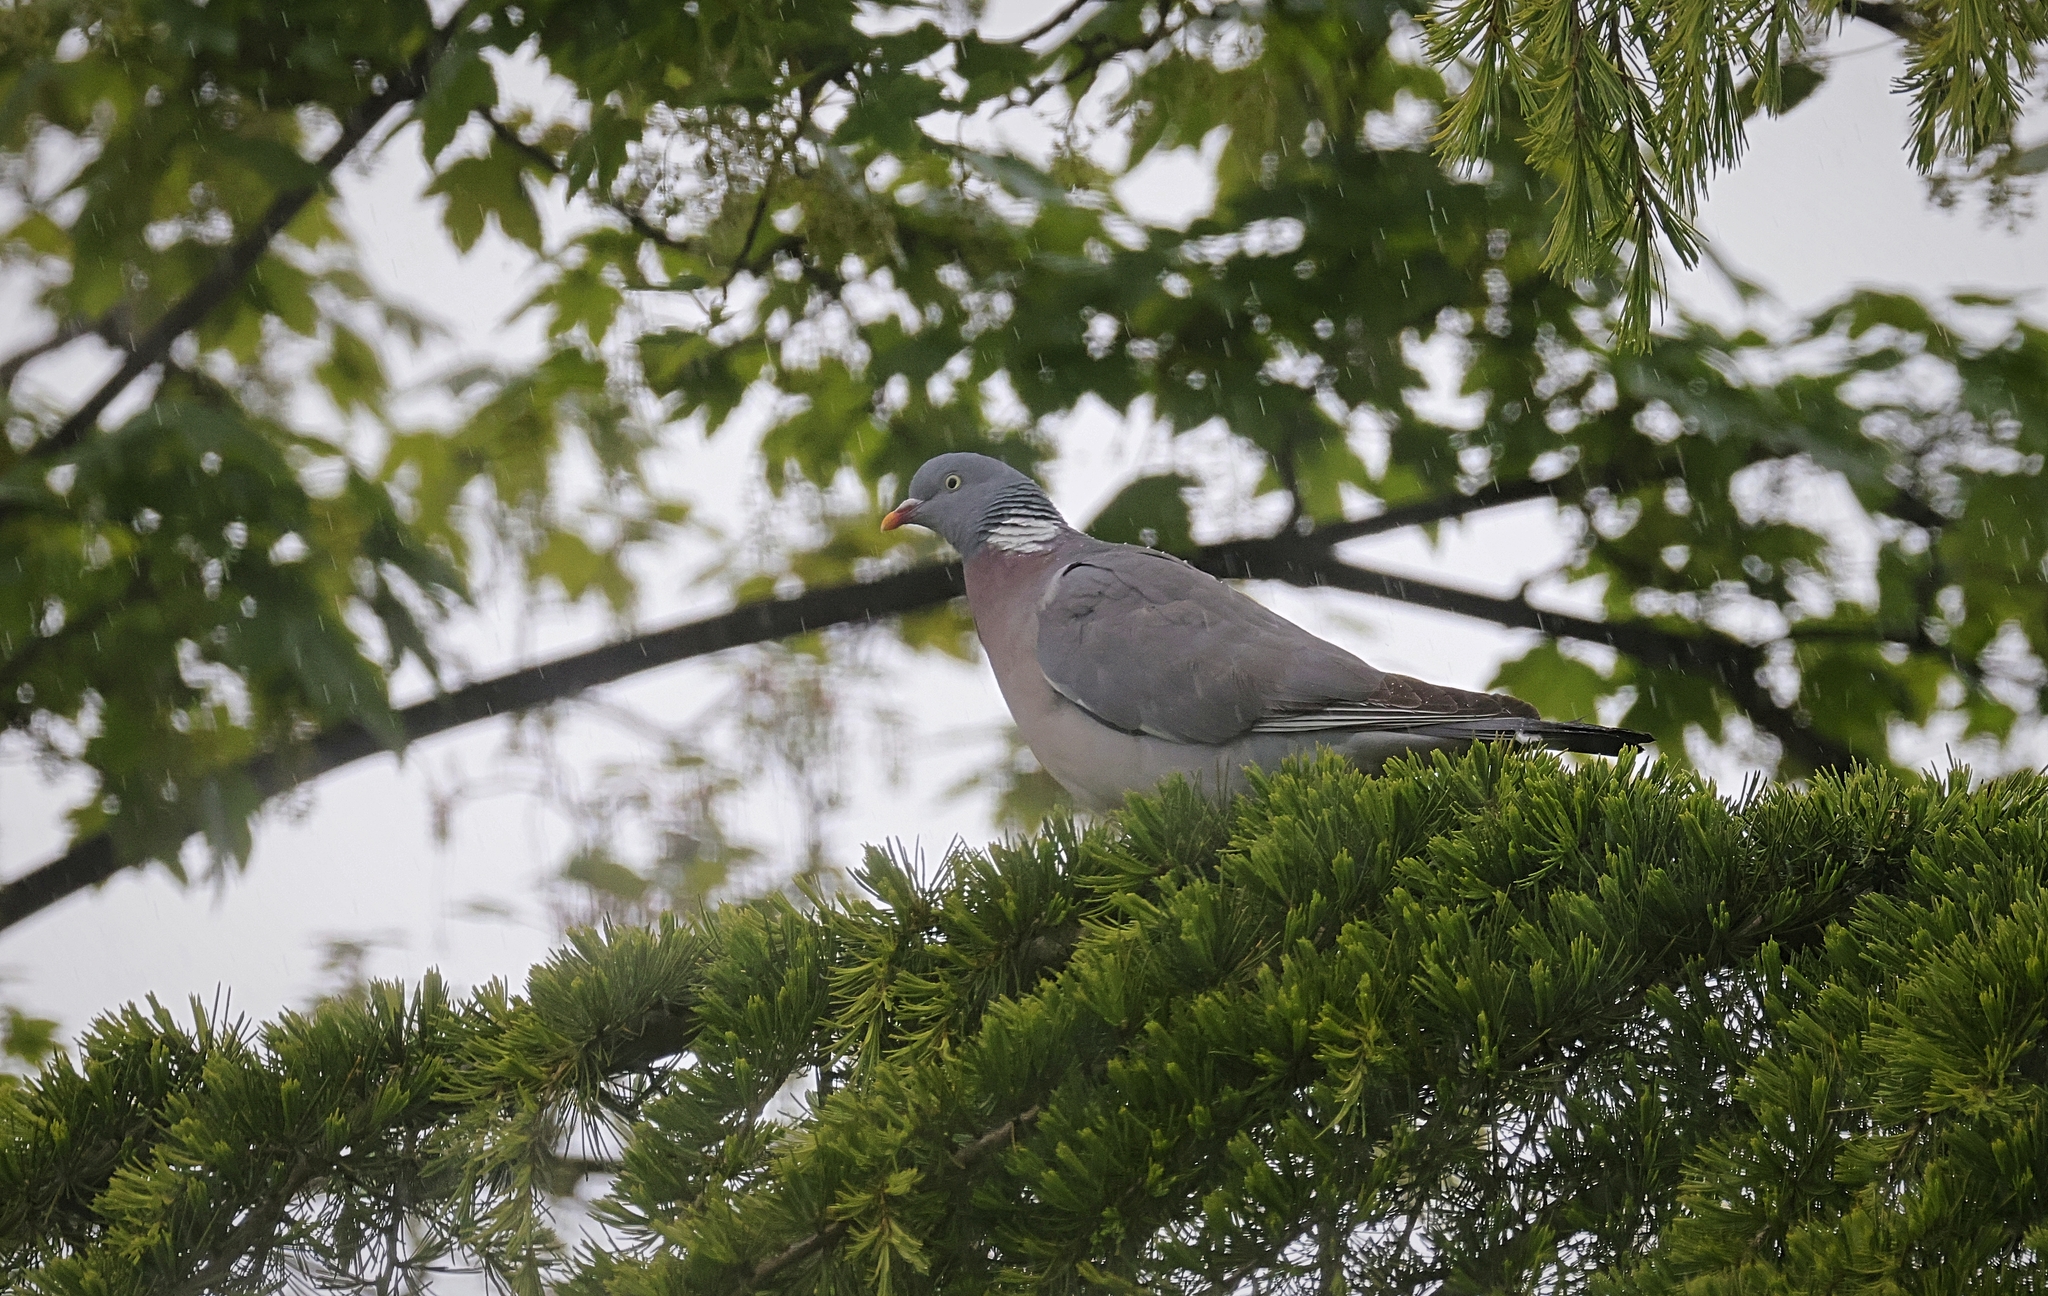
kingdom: Animalia
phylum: Chordata
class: Aves
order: Columbiformes
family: Columbidae
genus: Columba
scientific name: Columba palumbus
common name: Common wood pigeon
